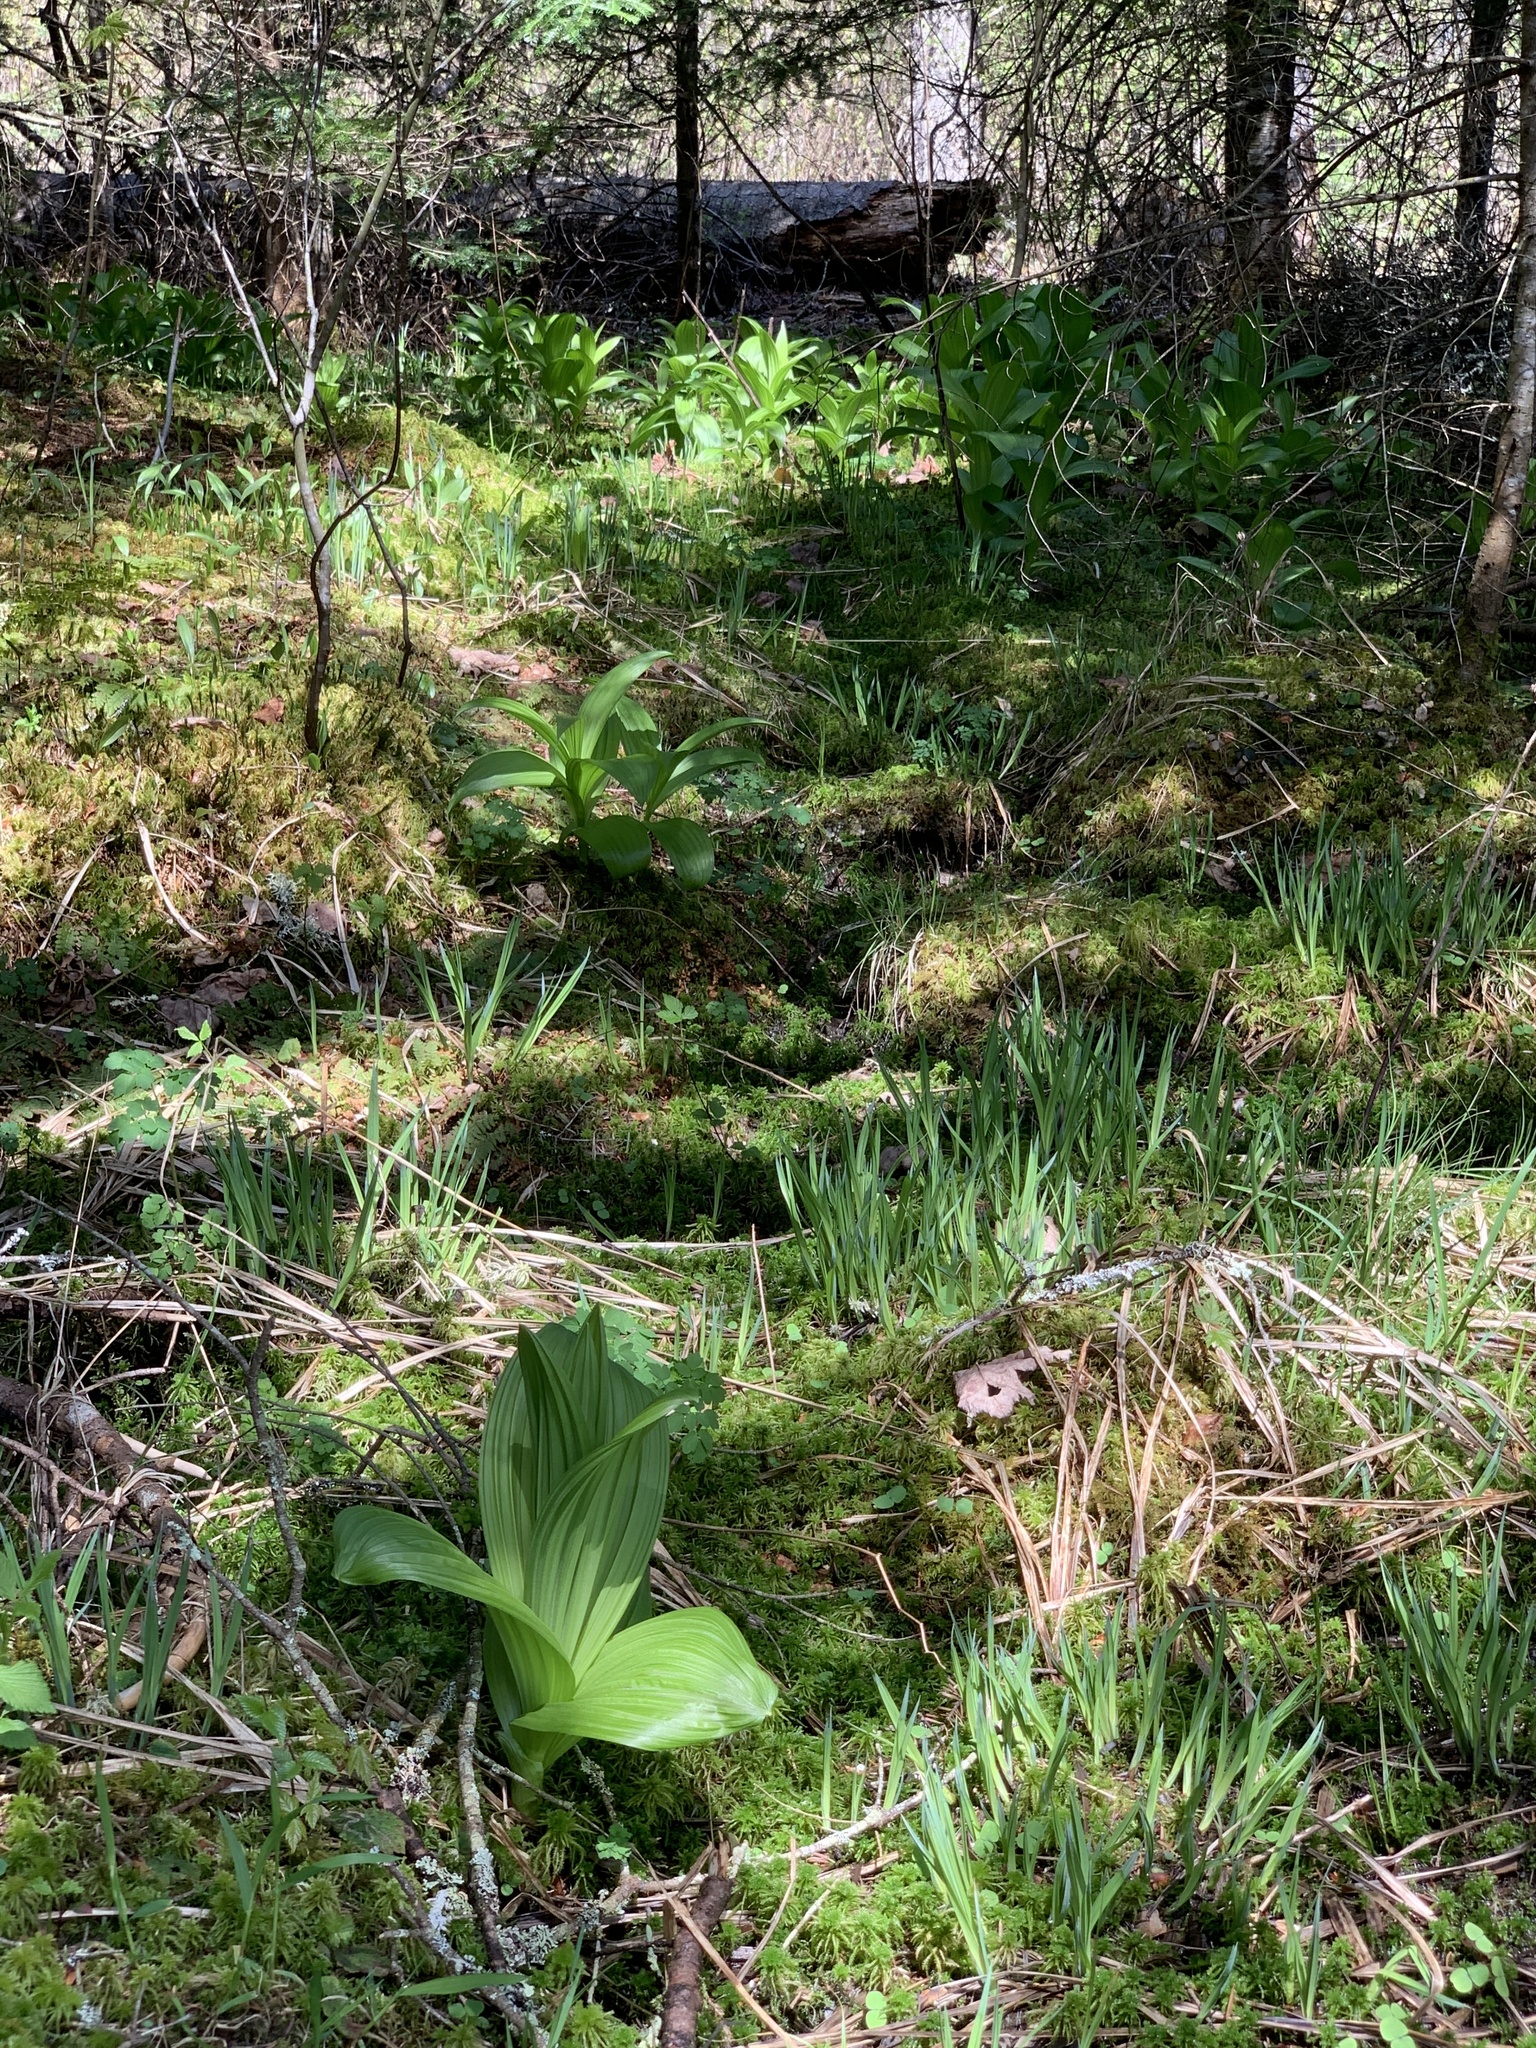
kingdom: Plantae
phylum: Tracheophyta
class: Liliopsida
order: Liliales
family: Melanthiaceae
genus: Veratrum
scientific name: Veratrum viride
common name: American false hellebore
